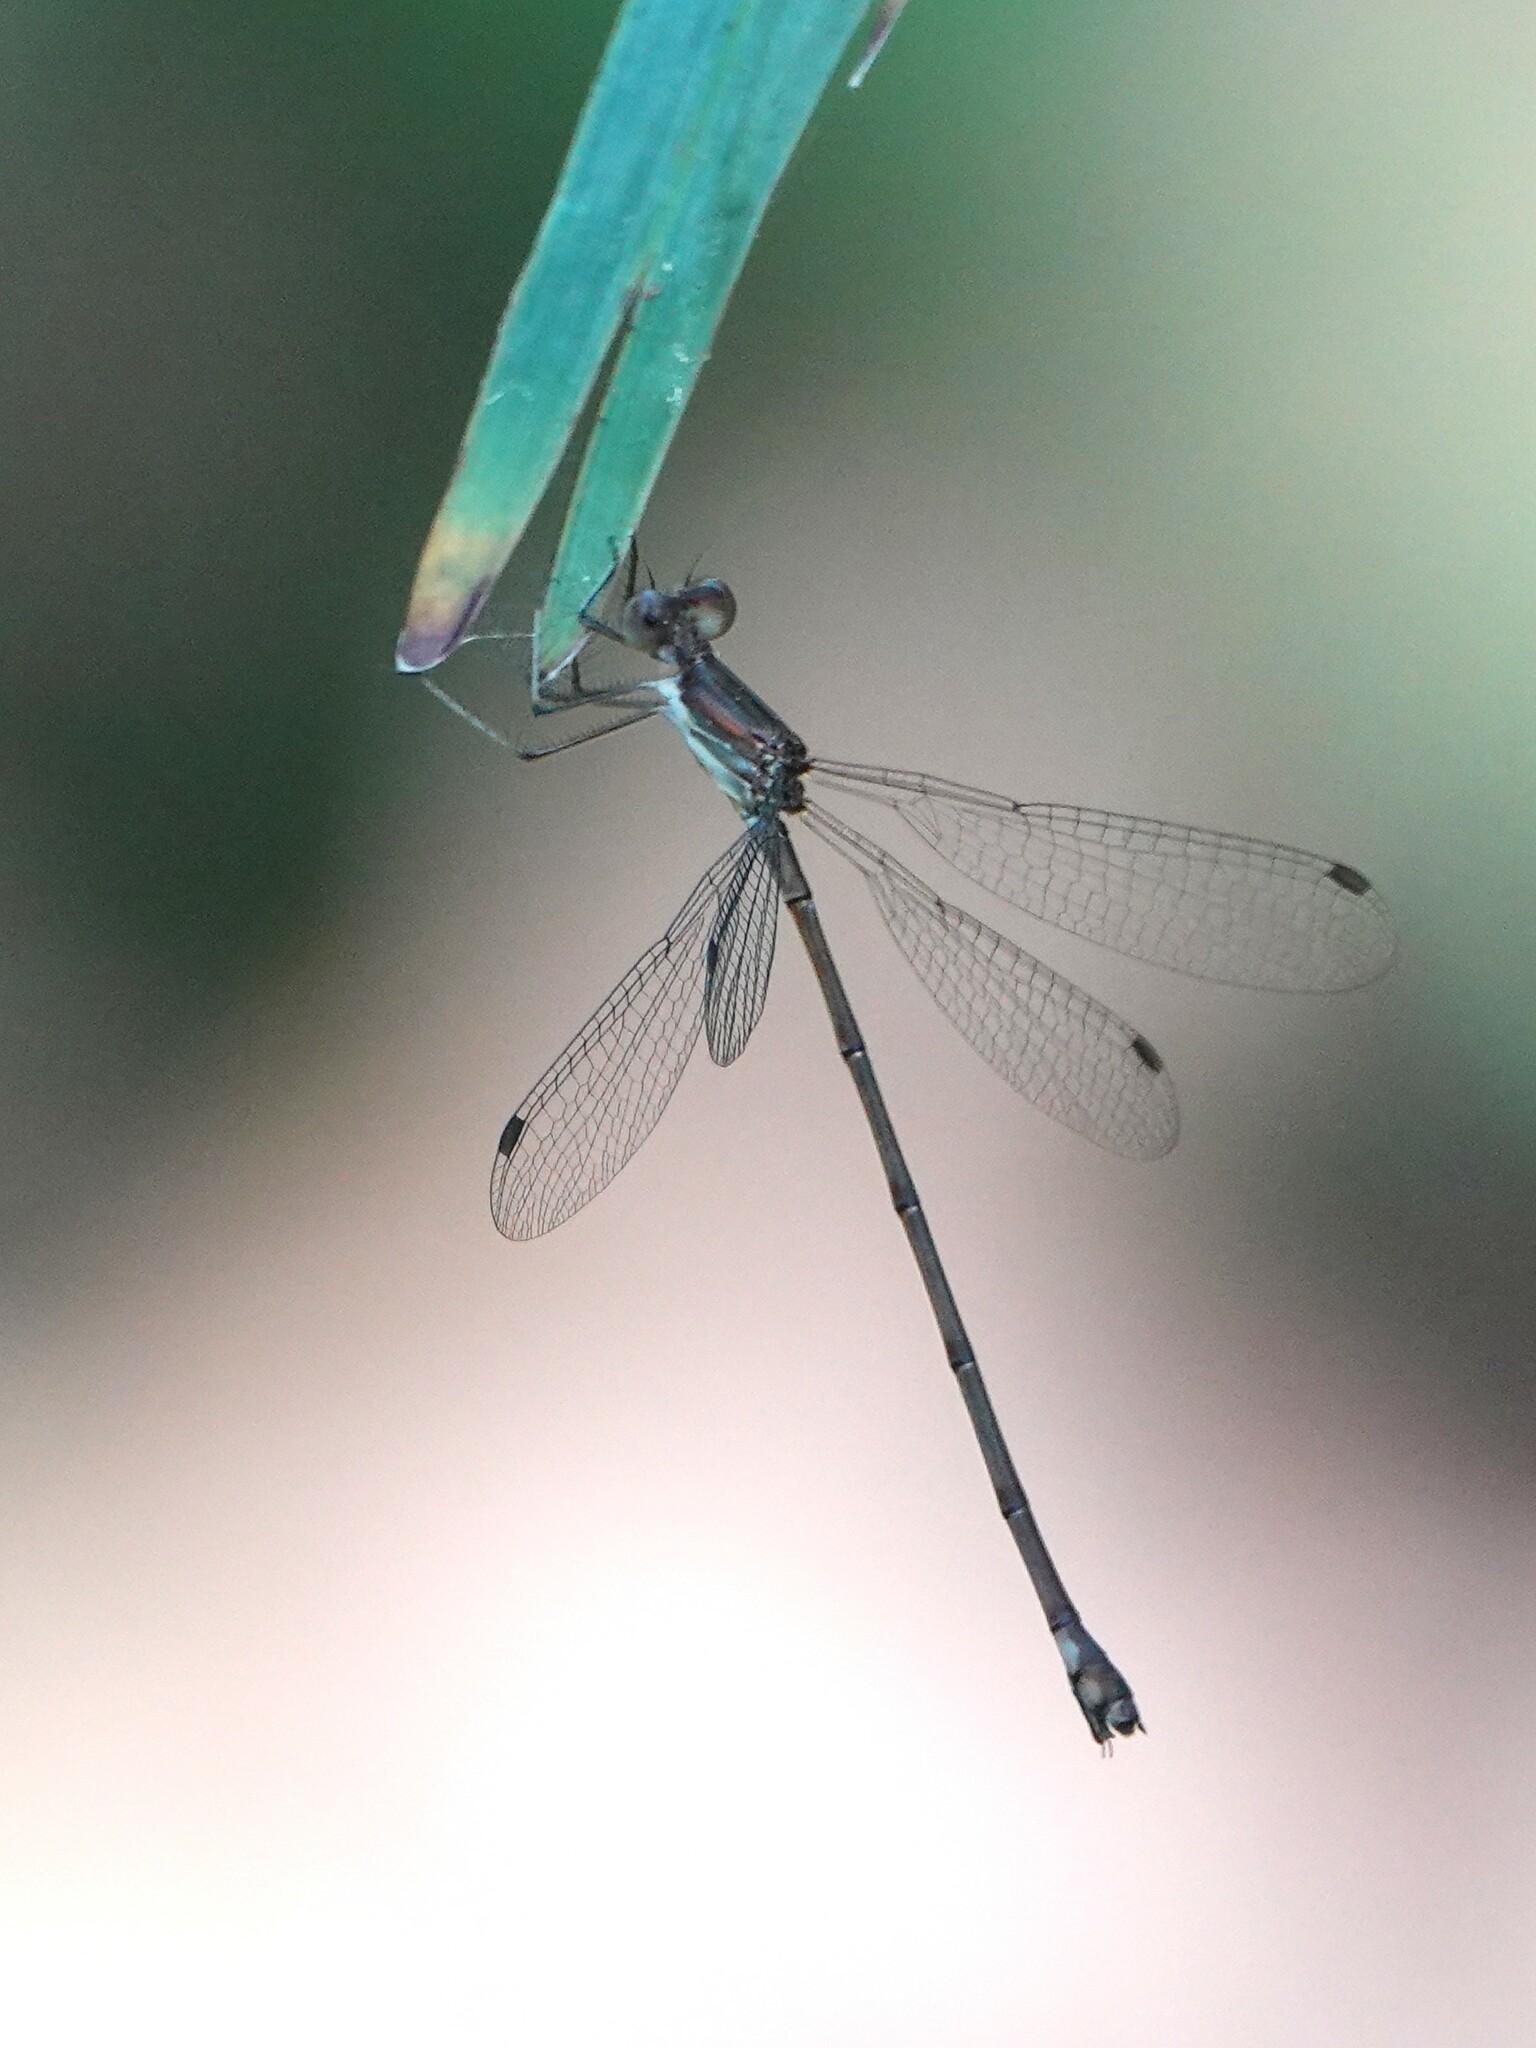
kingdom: Animalia
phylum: Arthropoda
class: Insecta
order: Odonata
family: Lestidae
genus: Lestes
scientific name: Lestes tenuatus
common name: Blue-striped spreadwing
